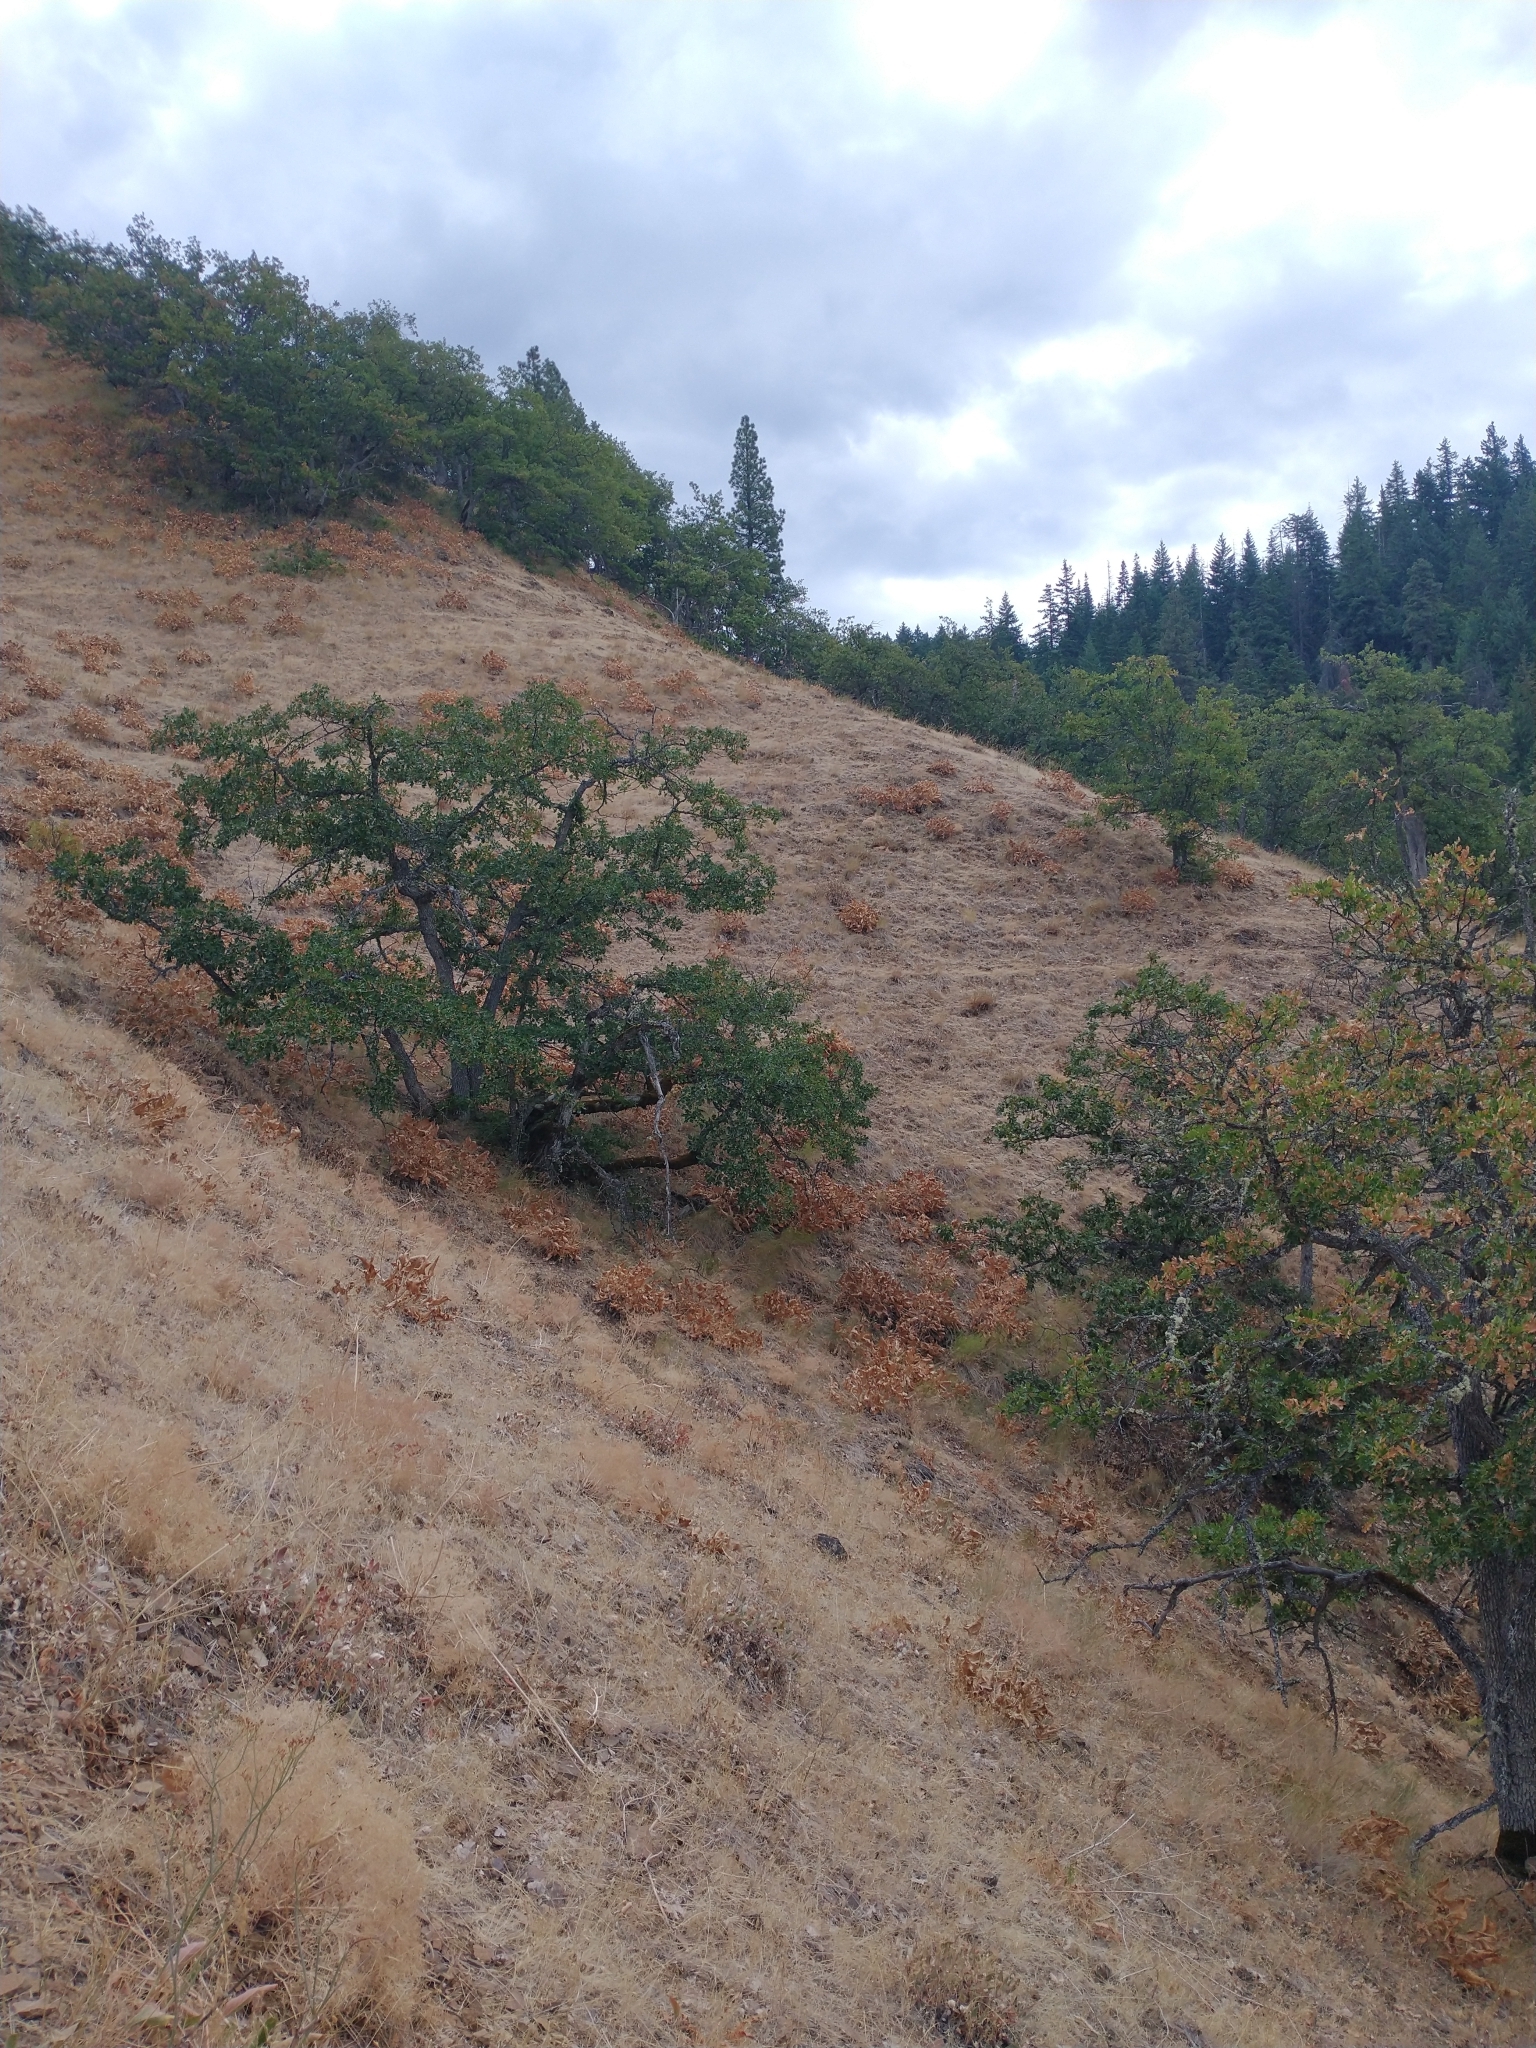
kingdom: Plantae
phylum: Tracheophyta
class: Magnoliopsida
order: Fagales
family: Fagaceae
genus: Quercus
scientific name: Quercus garryana
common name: Garry oak
